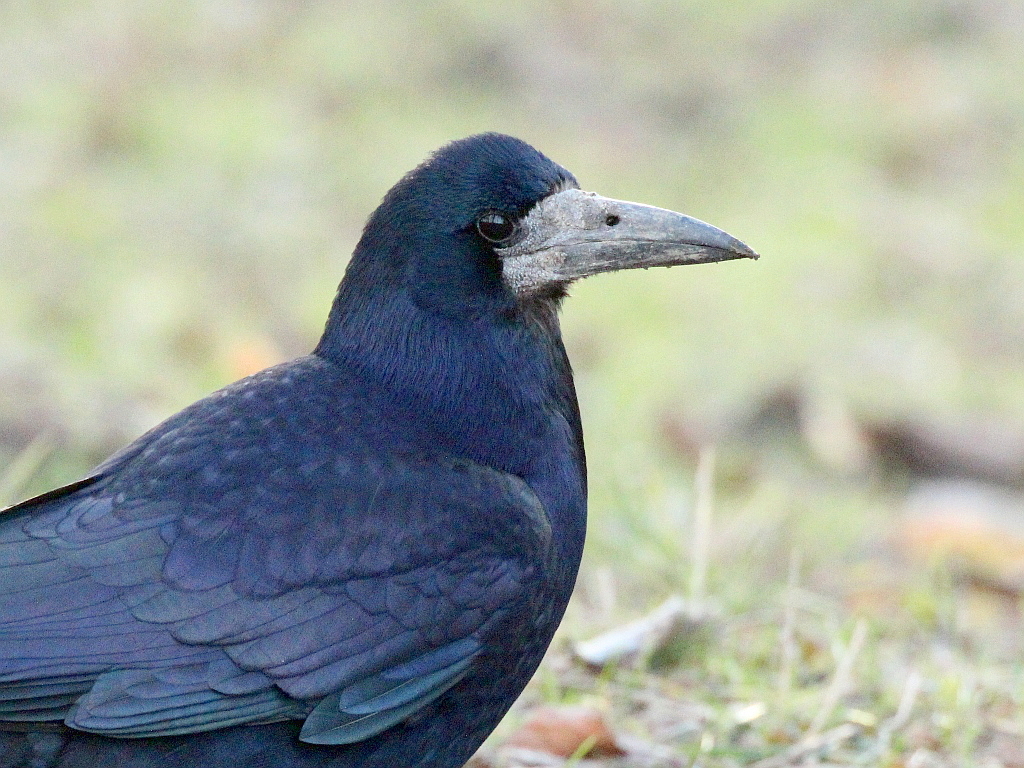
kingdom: Animalia
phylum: Chordata
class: Aves
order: Passeriformes
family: Corvidae
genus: Corvus
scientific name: Corvus frugilegus
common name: Rook
